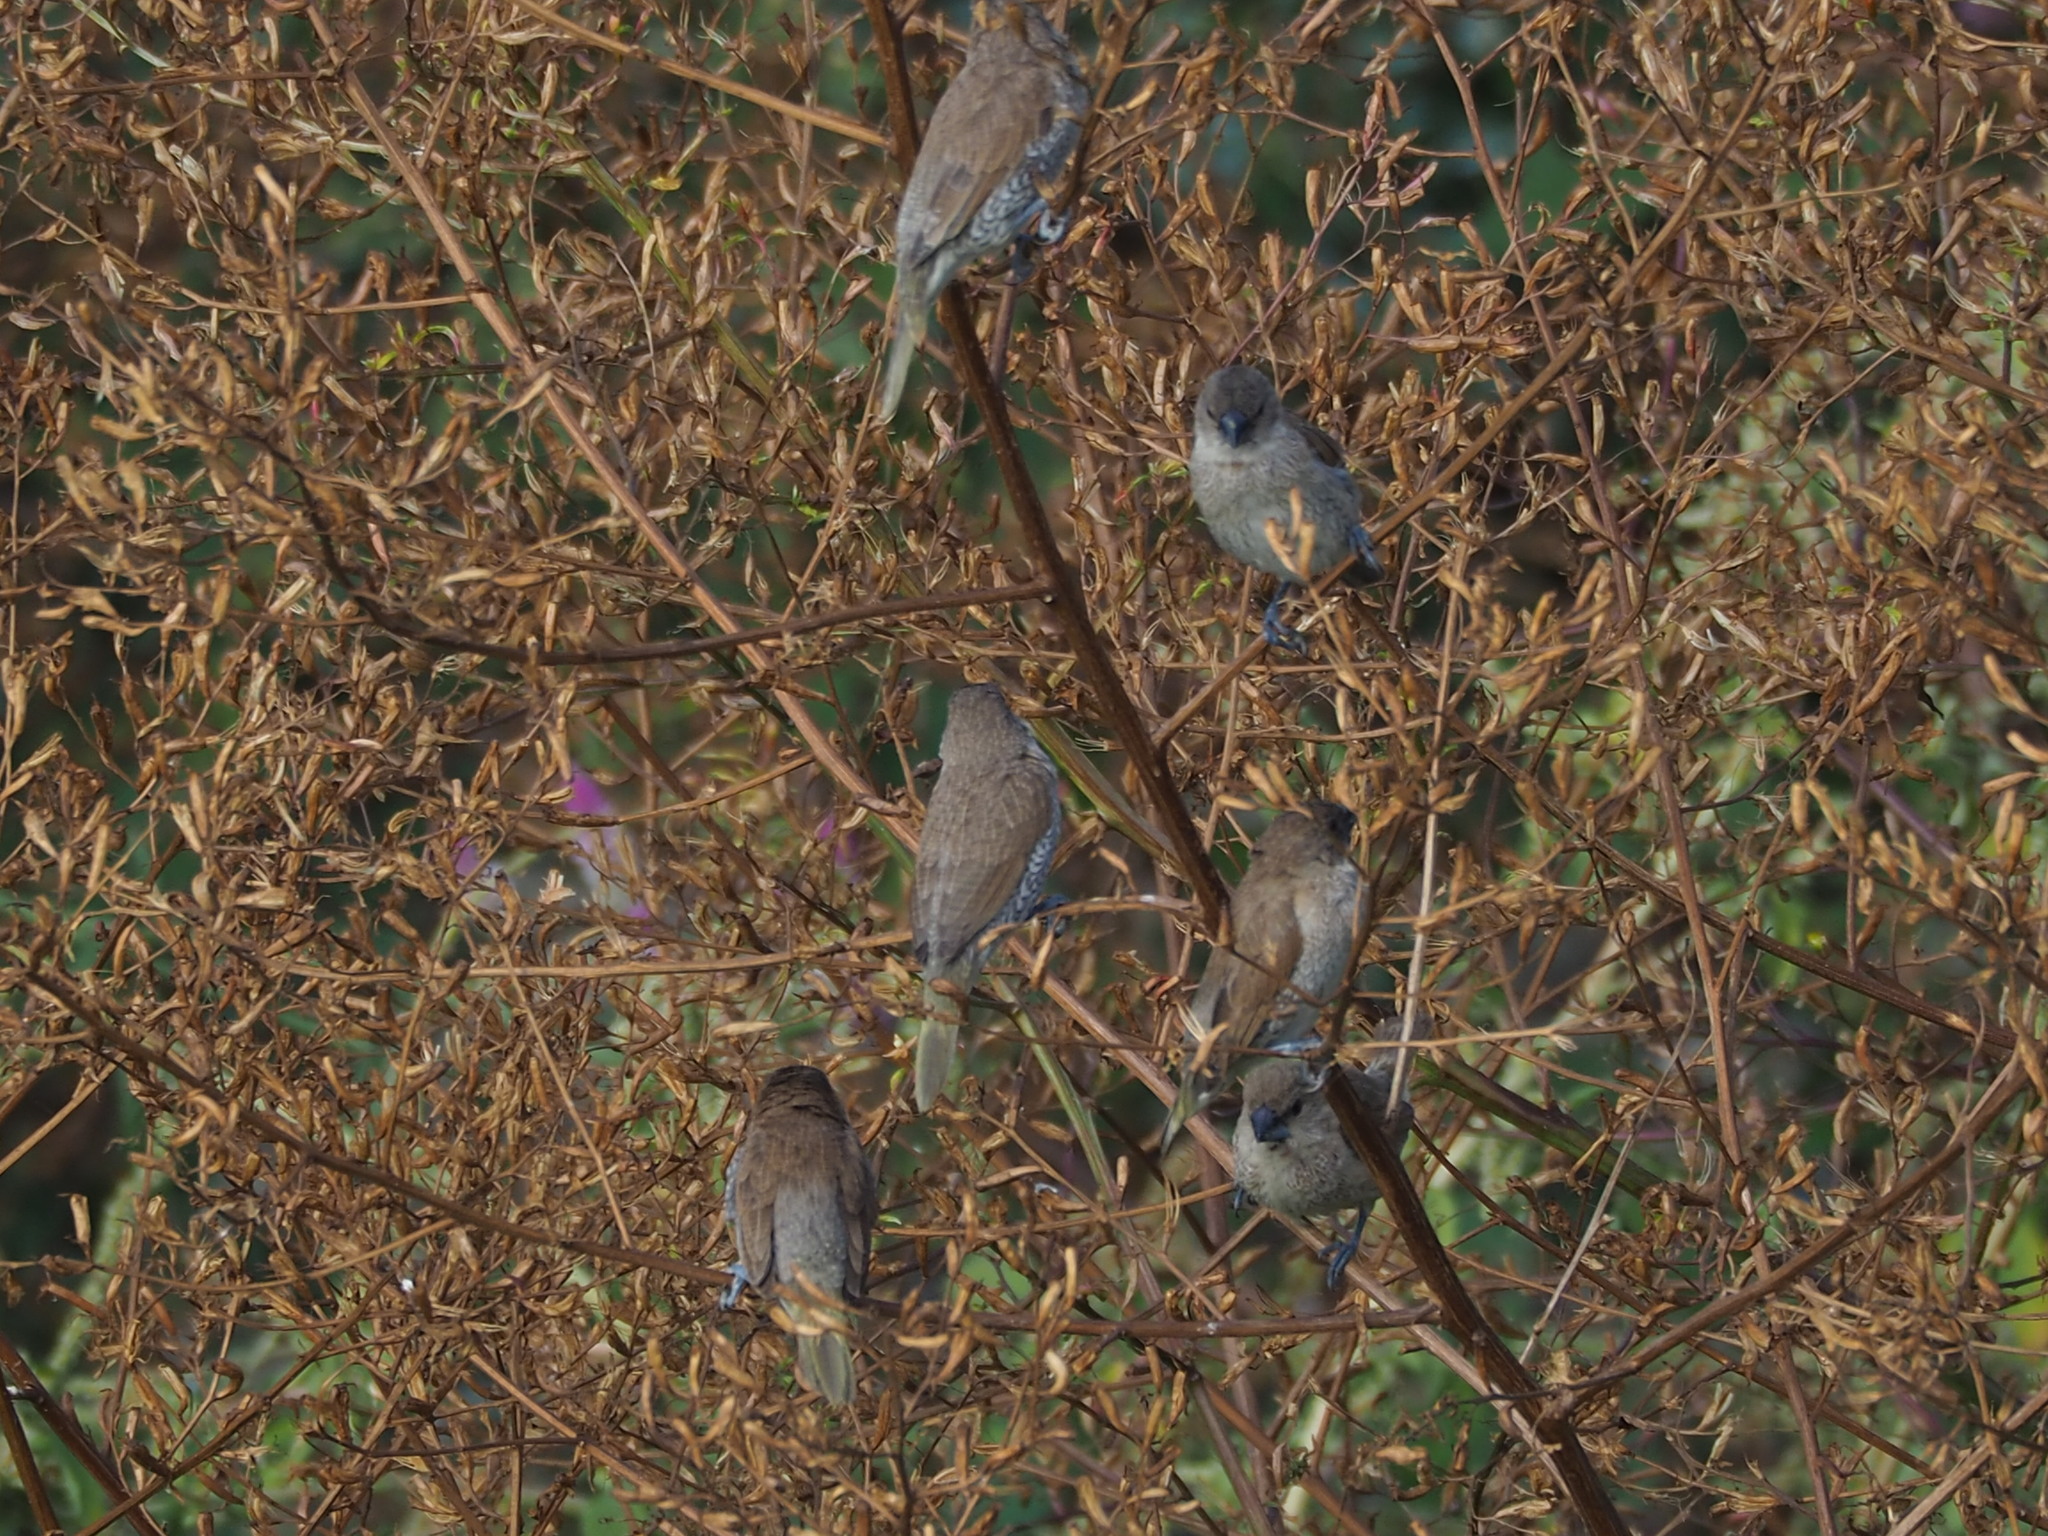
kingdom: Animalia
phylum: Chordata
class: Aves
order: Passeriformes
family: Estrildidae
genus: Lonchura
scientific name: Lonchura punctulata
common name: Scaly-breasted munia
